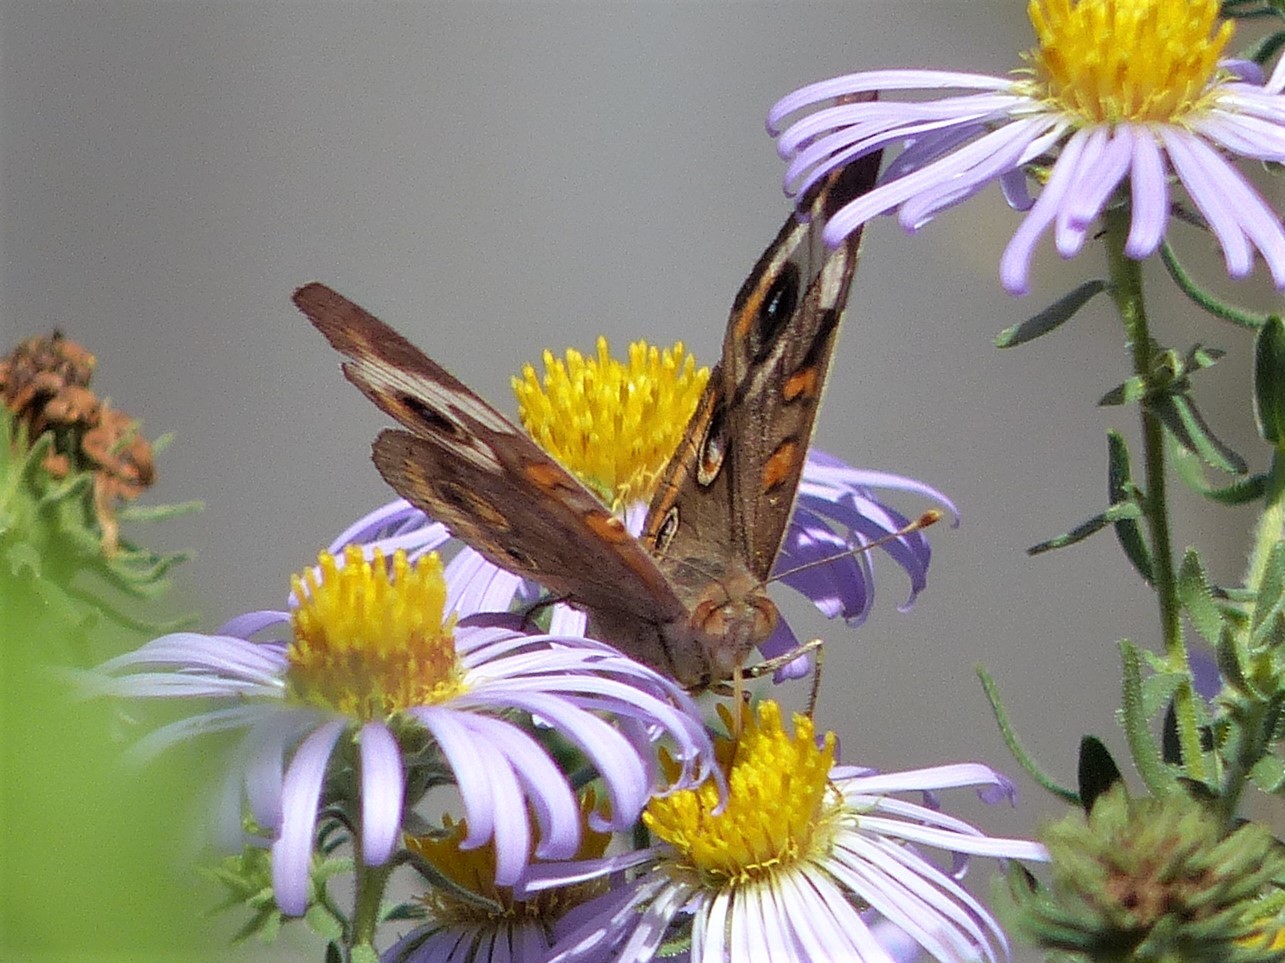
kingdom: Animalia
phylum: Arthropoda
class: Insecta
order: Lepidoptera
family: Nymphalidae
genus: Junonia
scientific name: Junonia coenia
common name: Common buckeye
